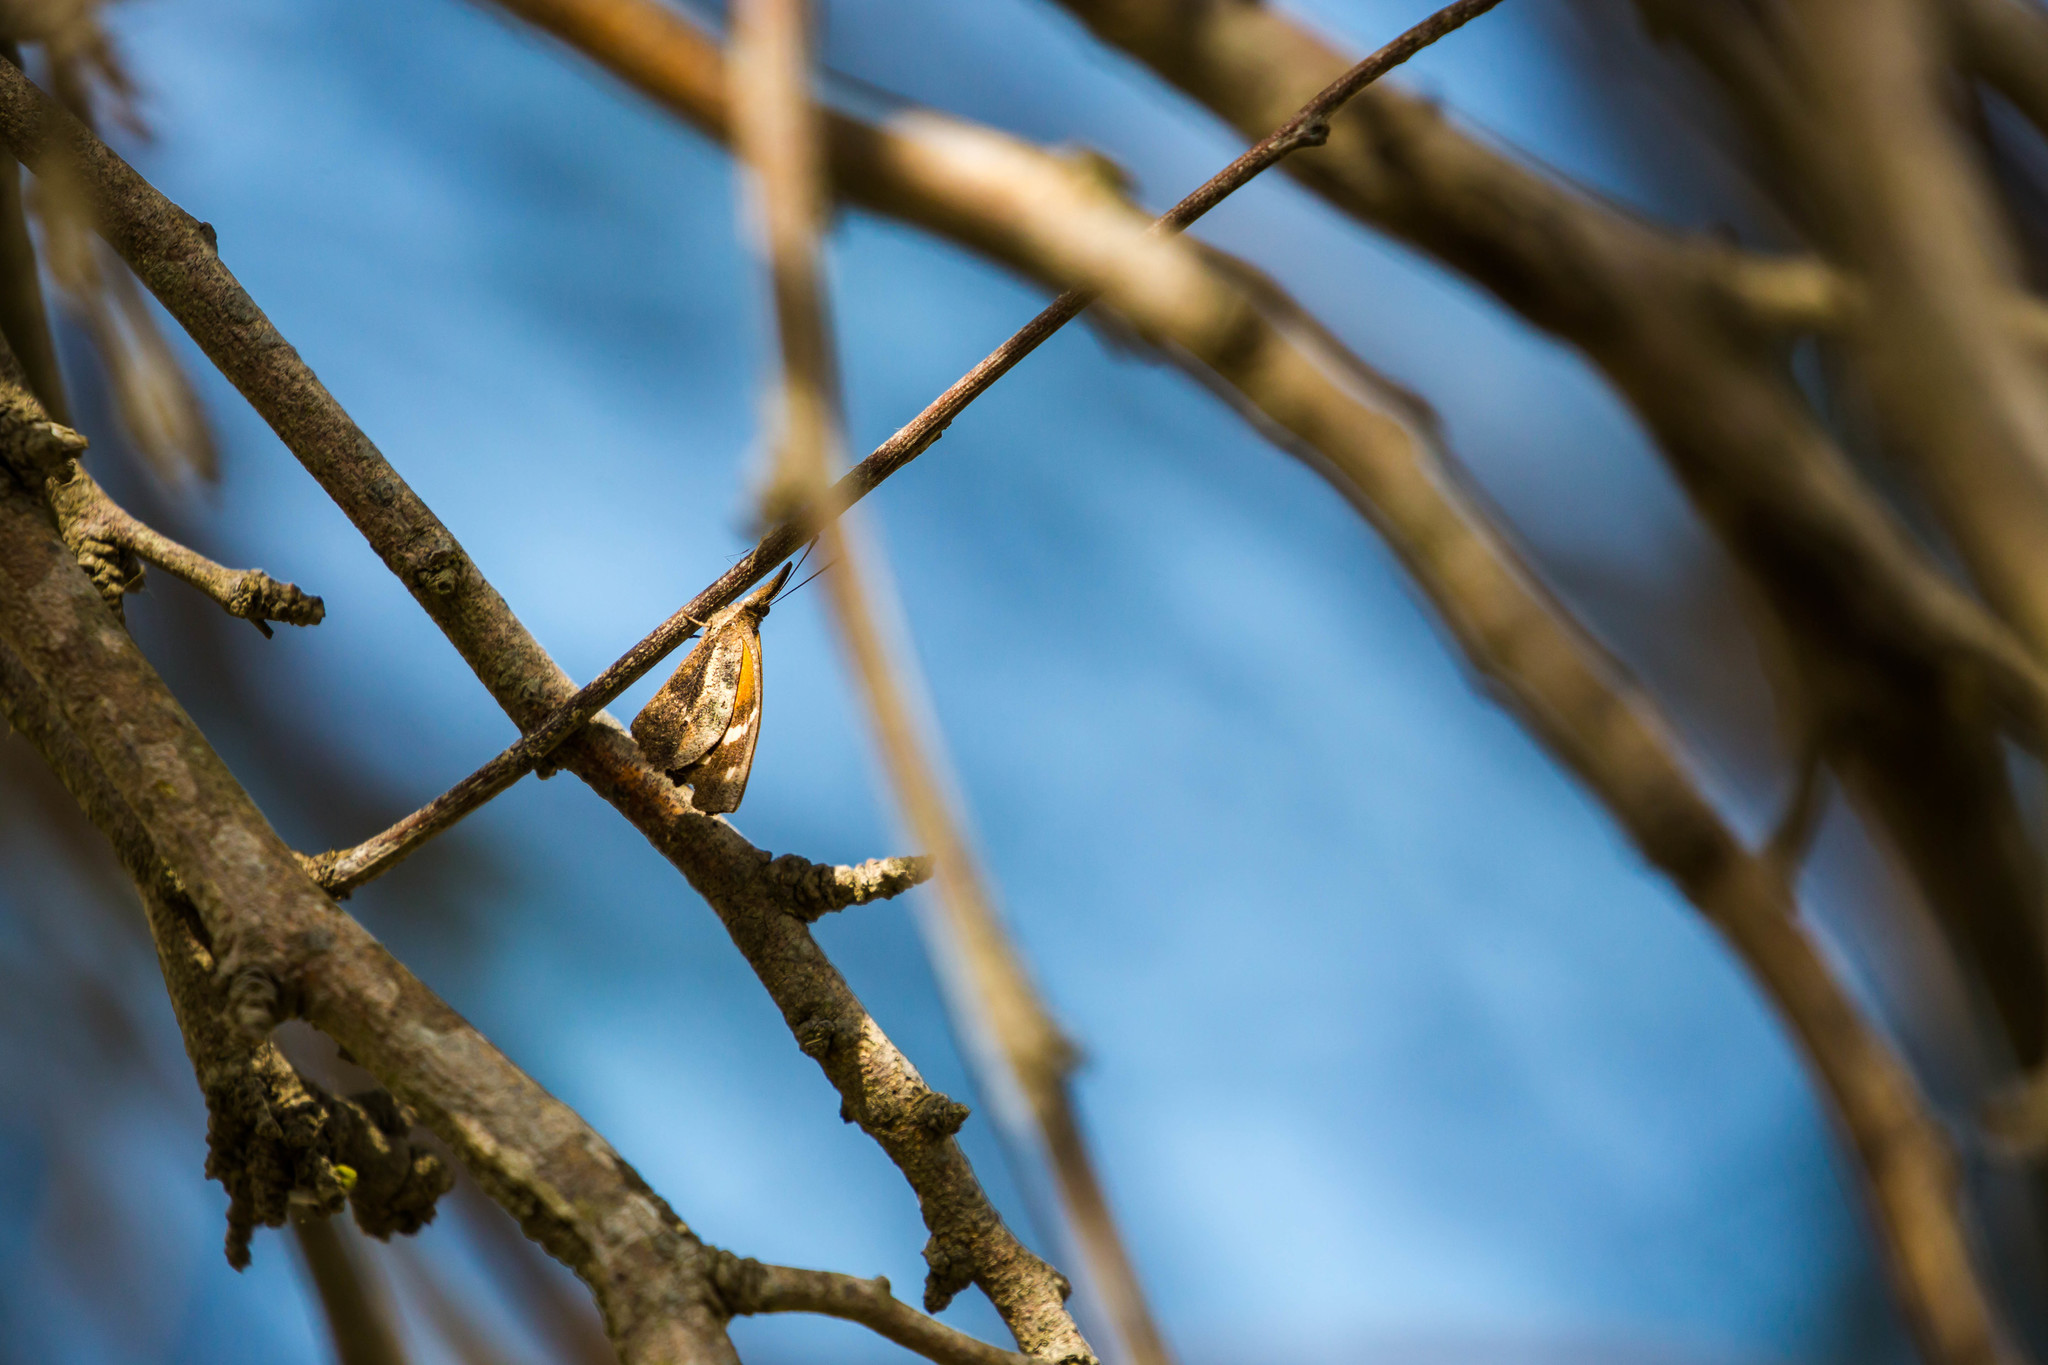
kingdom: Animalia
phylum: Arthropoda
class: Insecta
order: Lepidoptera
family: Nymphalidae
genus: Libytheana
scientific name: Libytheana carinenta
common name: American snout
